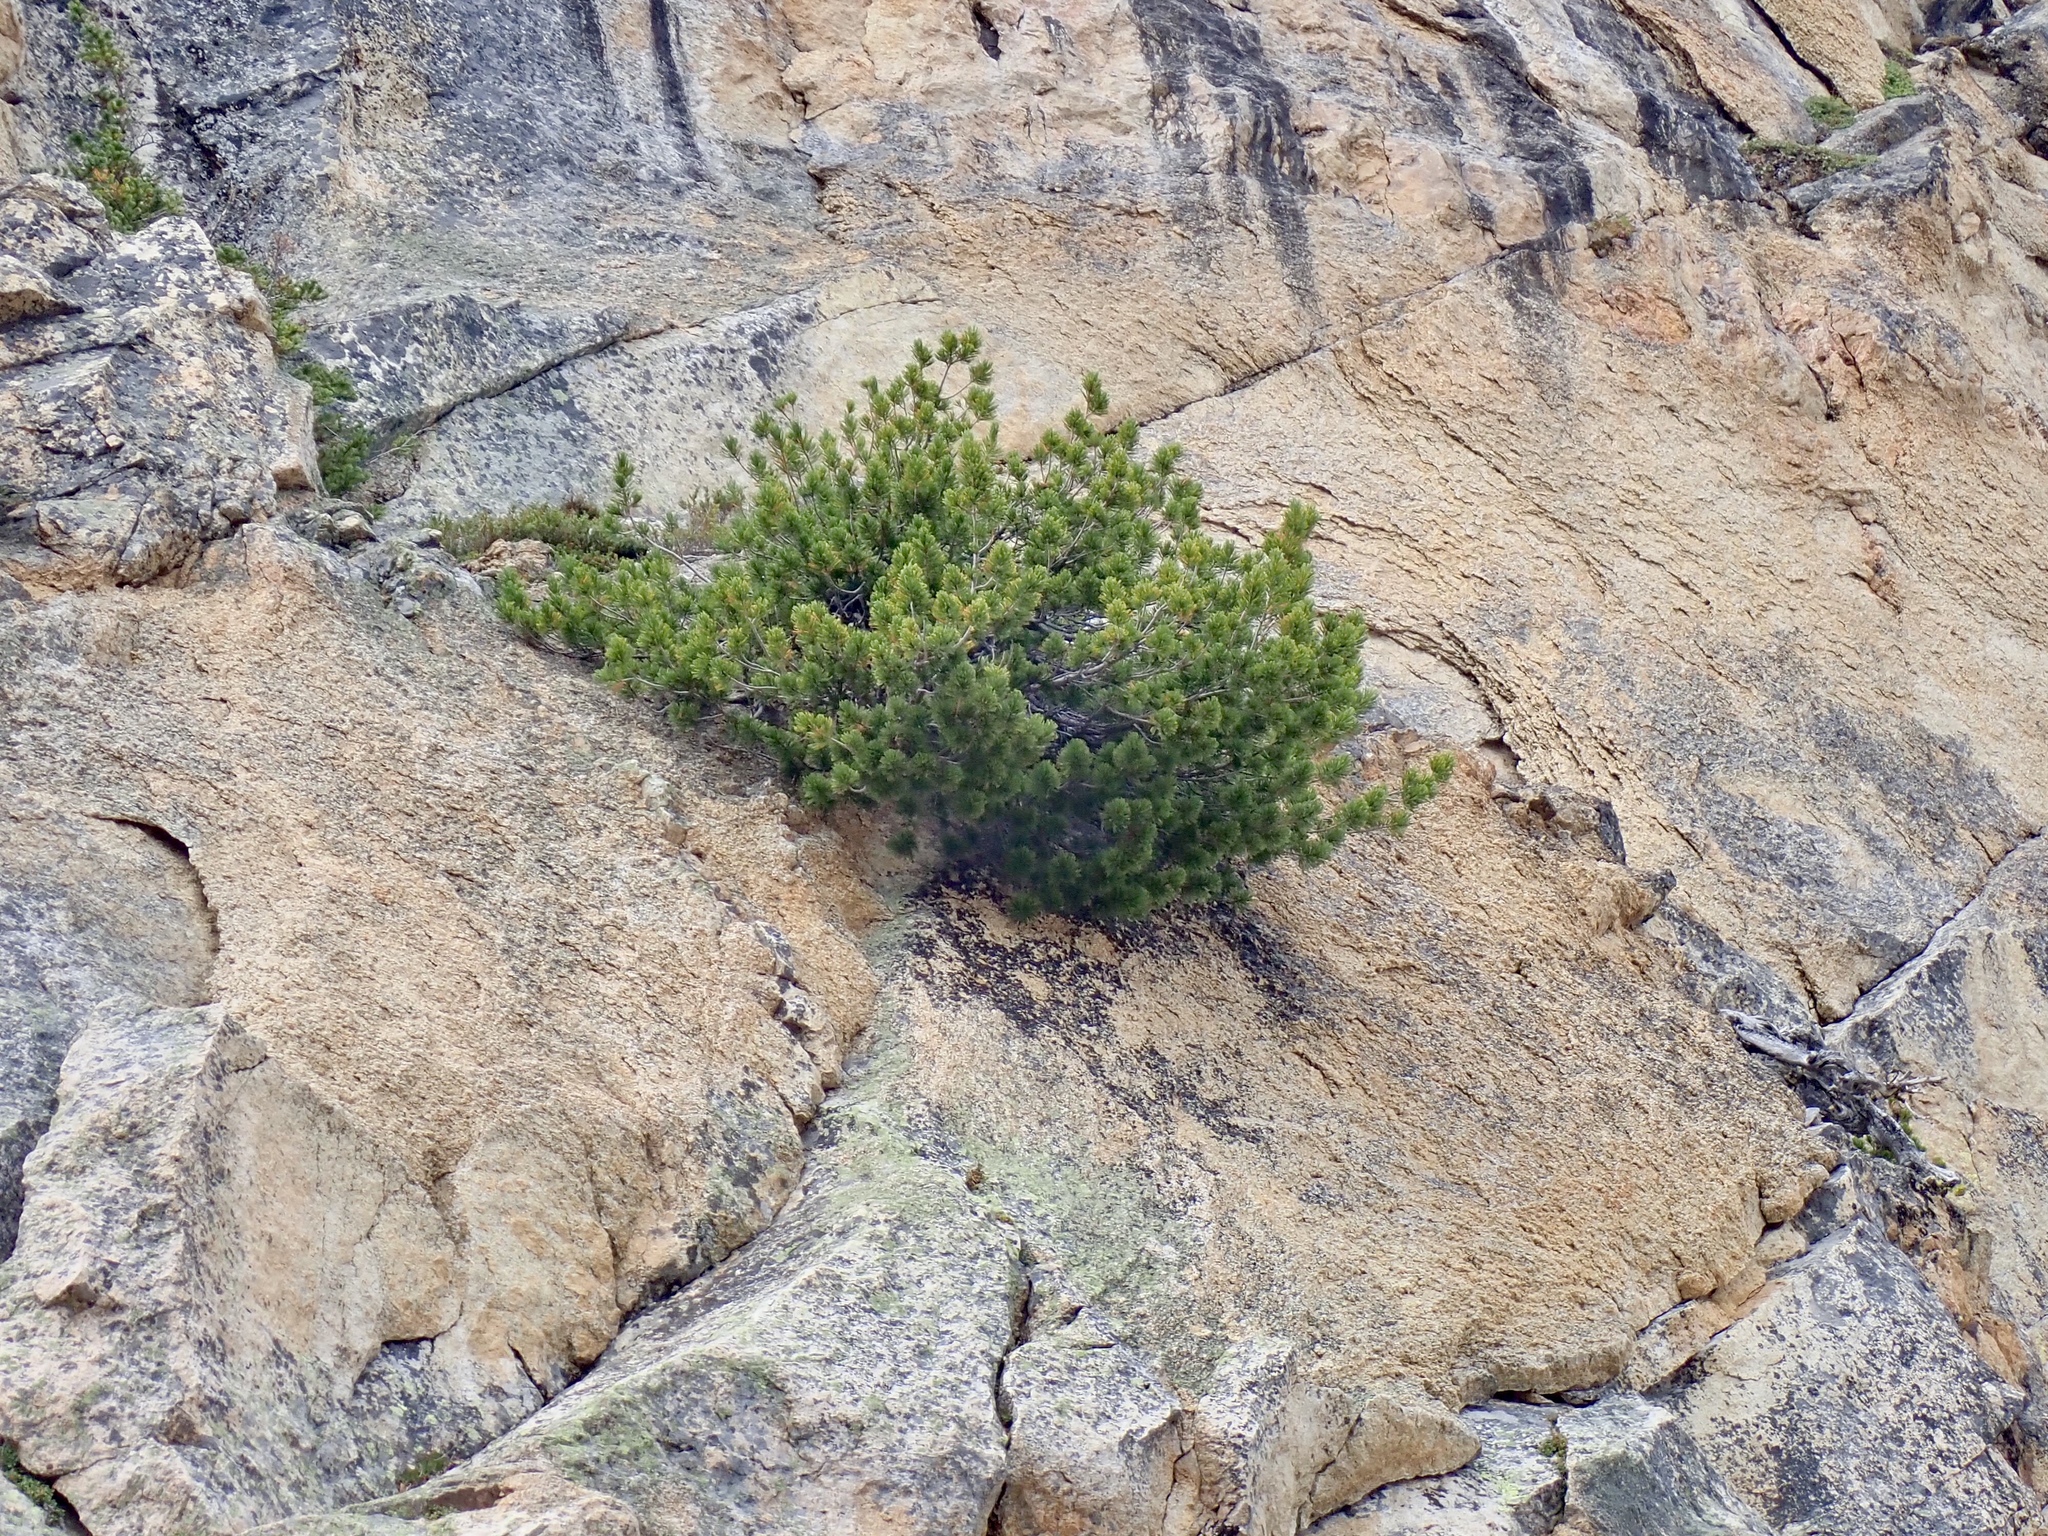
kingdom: Plantae
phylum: Tracheophyta
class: Pinopsida
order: Pinales
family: Pinaceae
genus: Pinus
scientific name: Pinus albicaulis
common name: Whitebark pine
